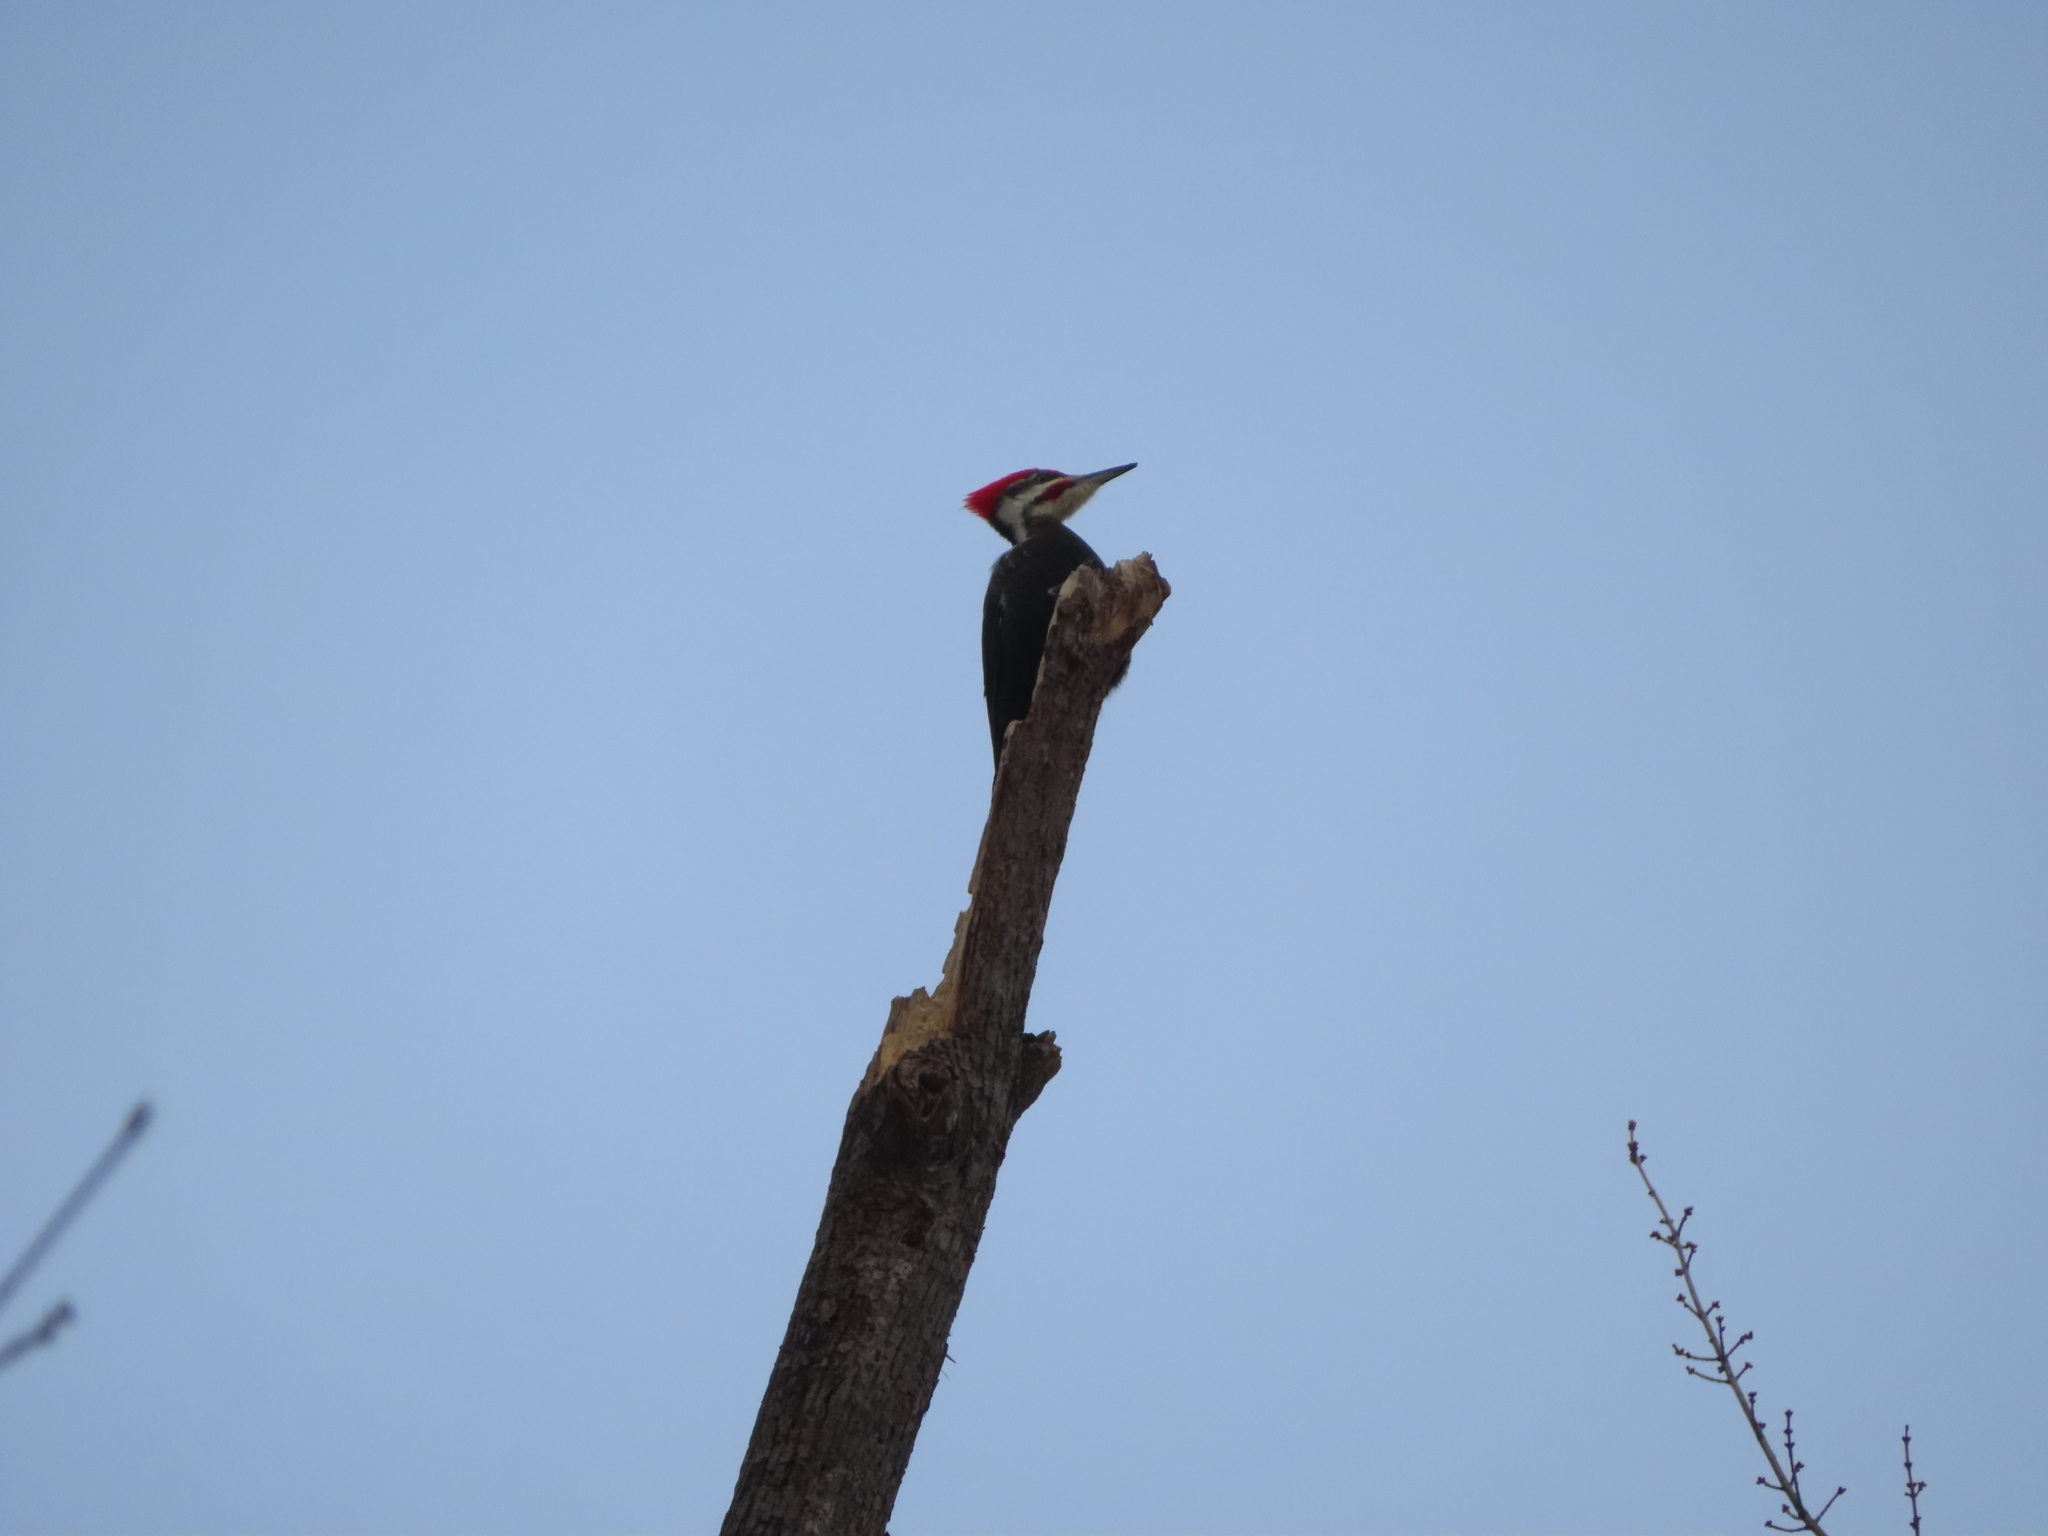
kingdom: Animalia
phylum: Chordata
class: Aves
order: Piciformes
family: Picidae
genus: Dryocopus
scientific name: Dryocopus pileatus
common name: Pileated woodpecker
